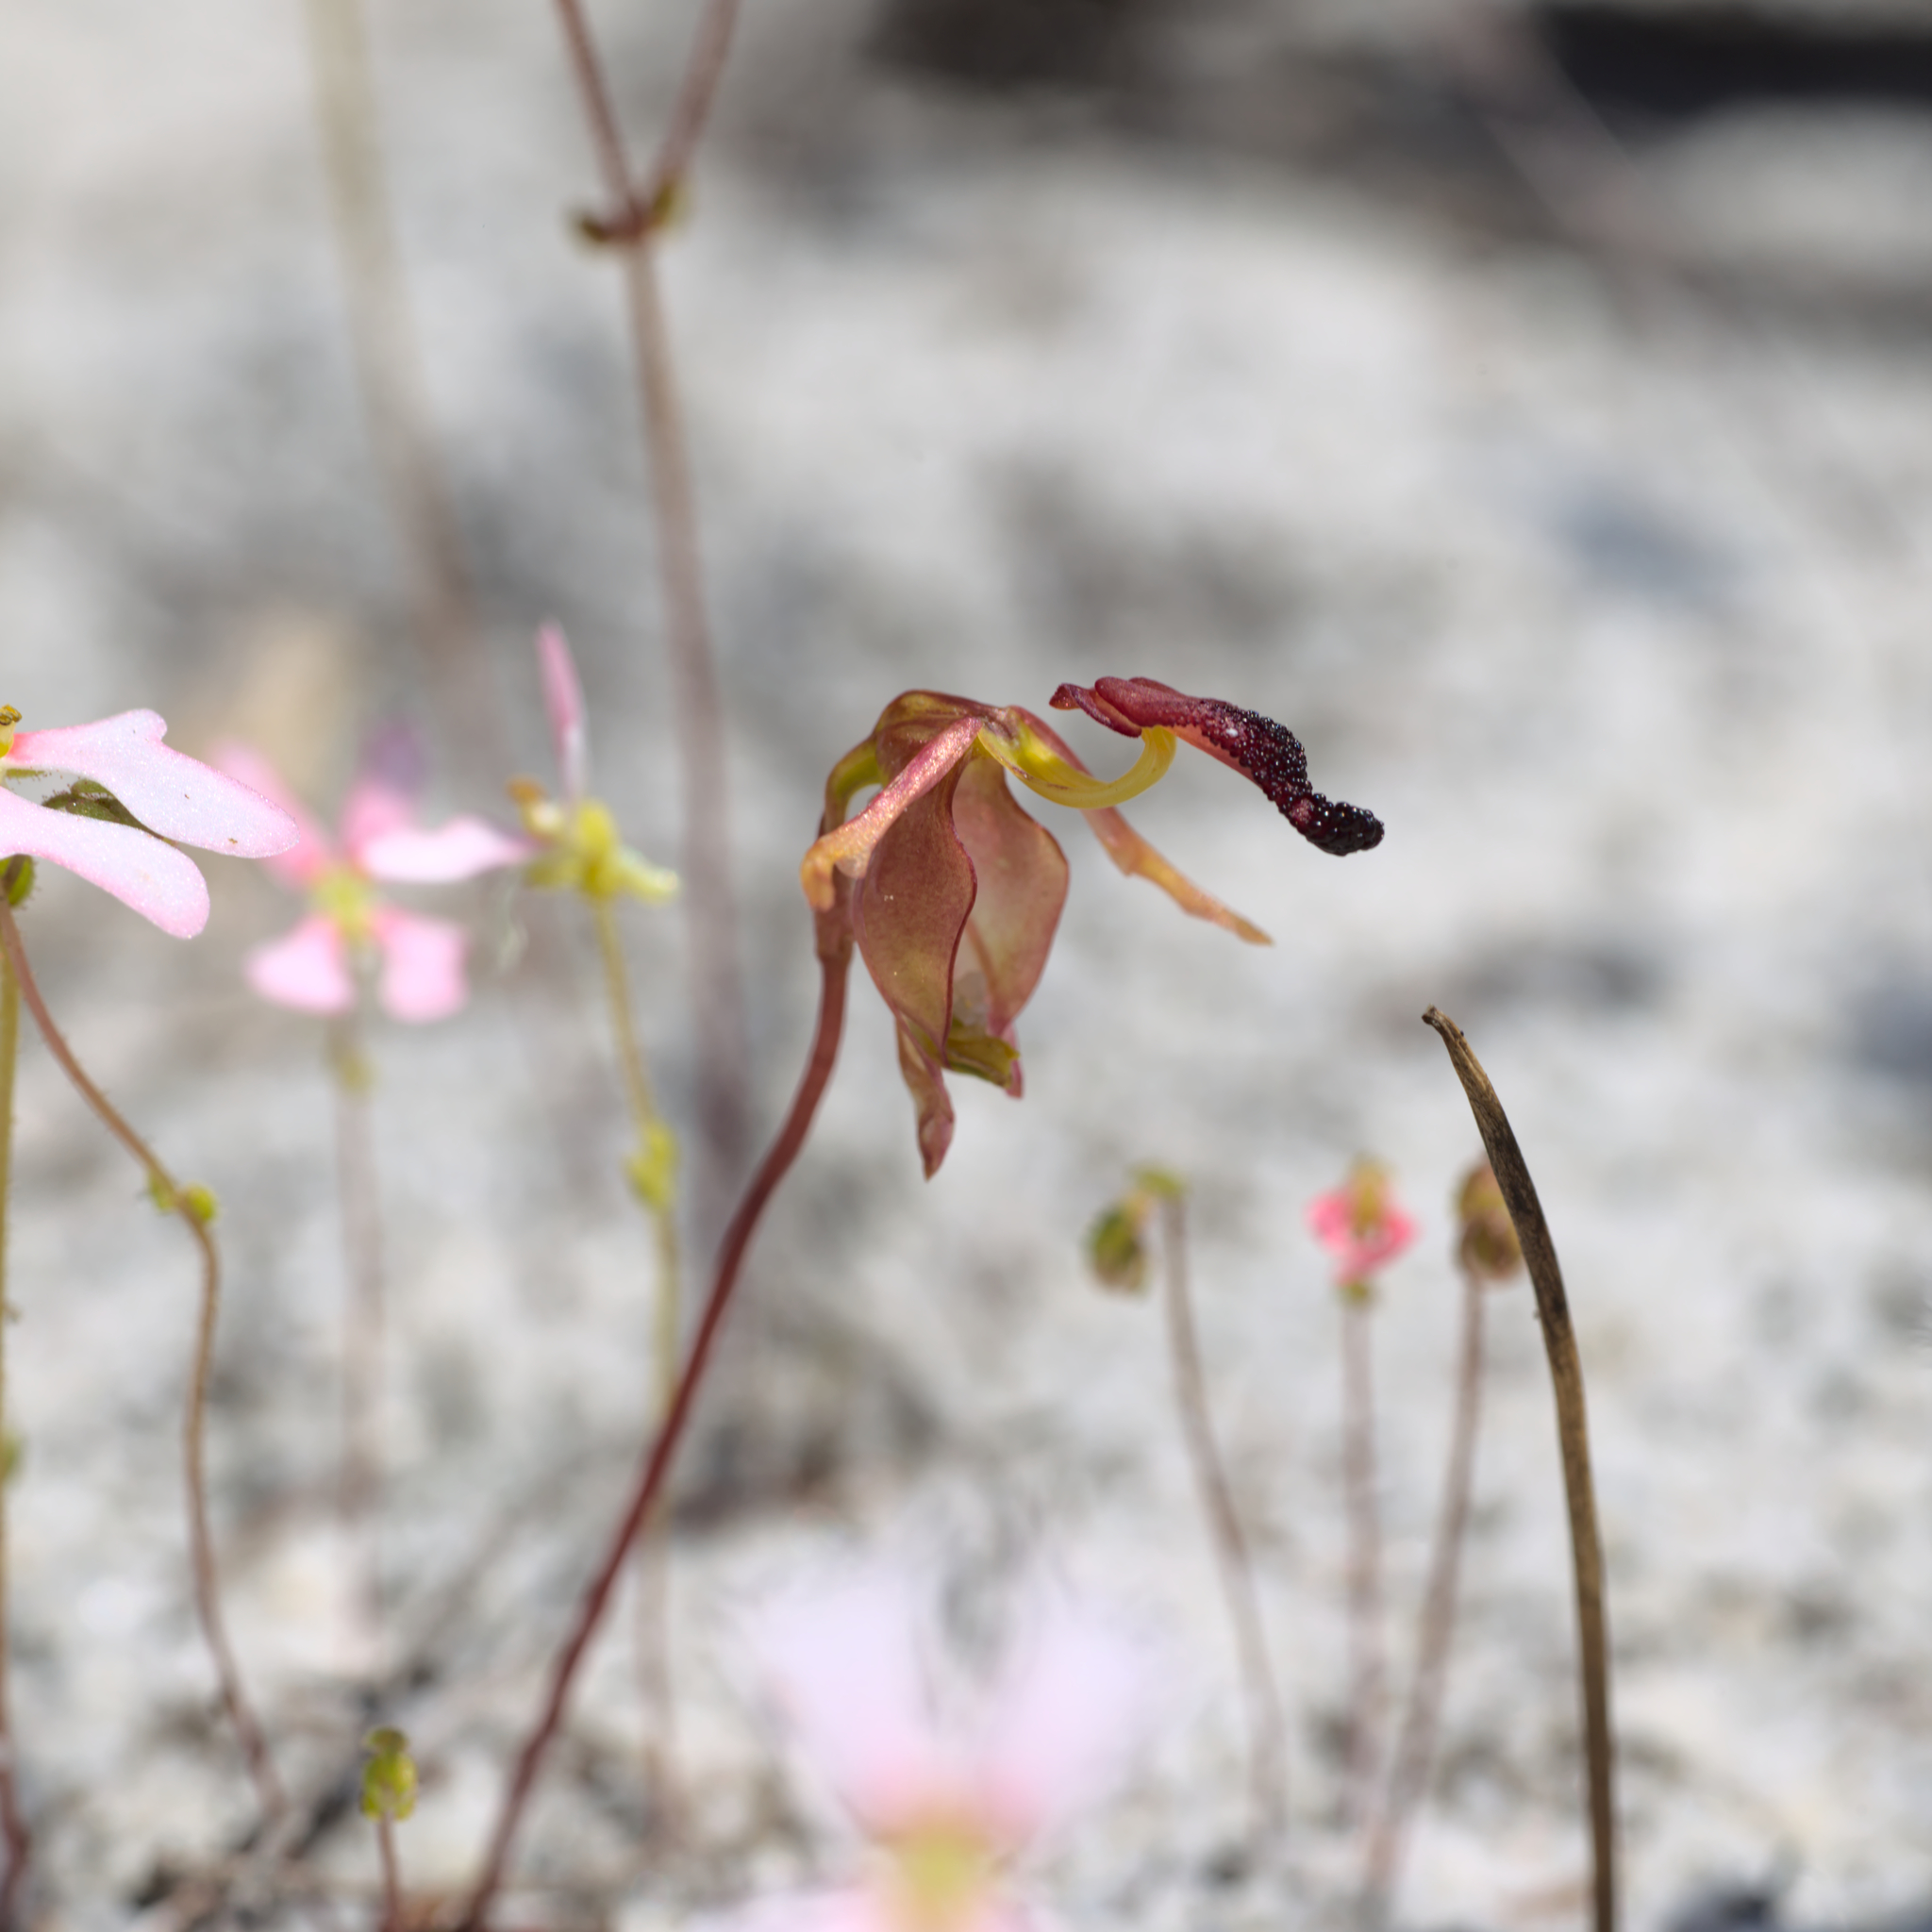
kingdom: Plantae
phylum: Tracheophyta
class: Liliopsida
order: Asparagales
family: Orchidaceae
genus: Caleana
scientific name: Caleana nigrita
